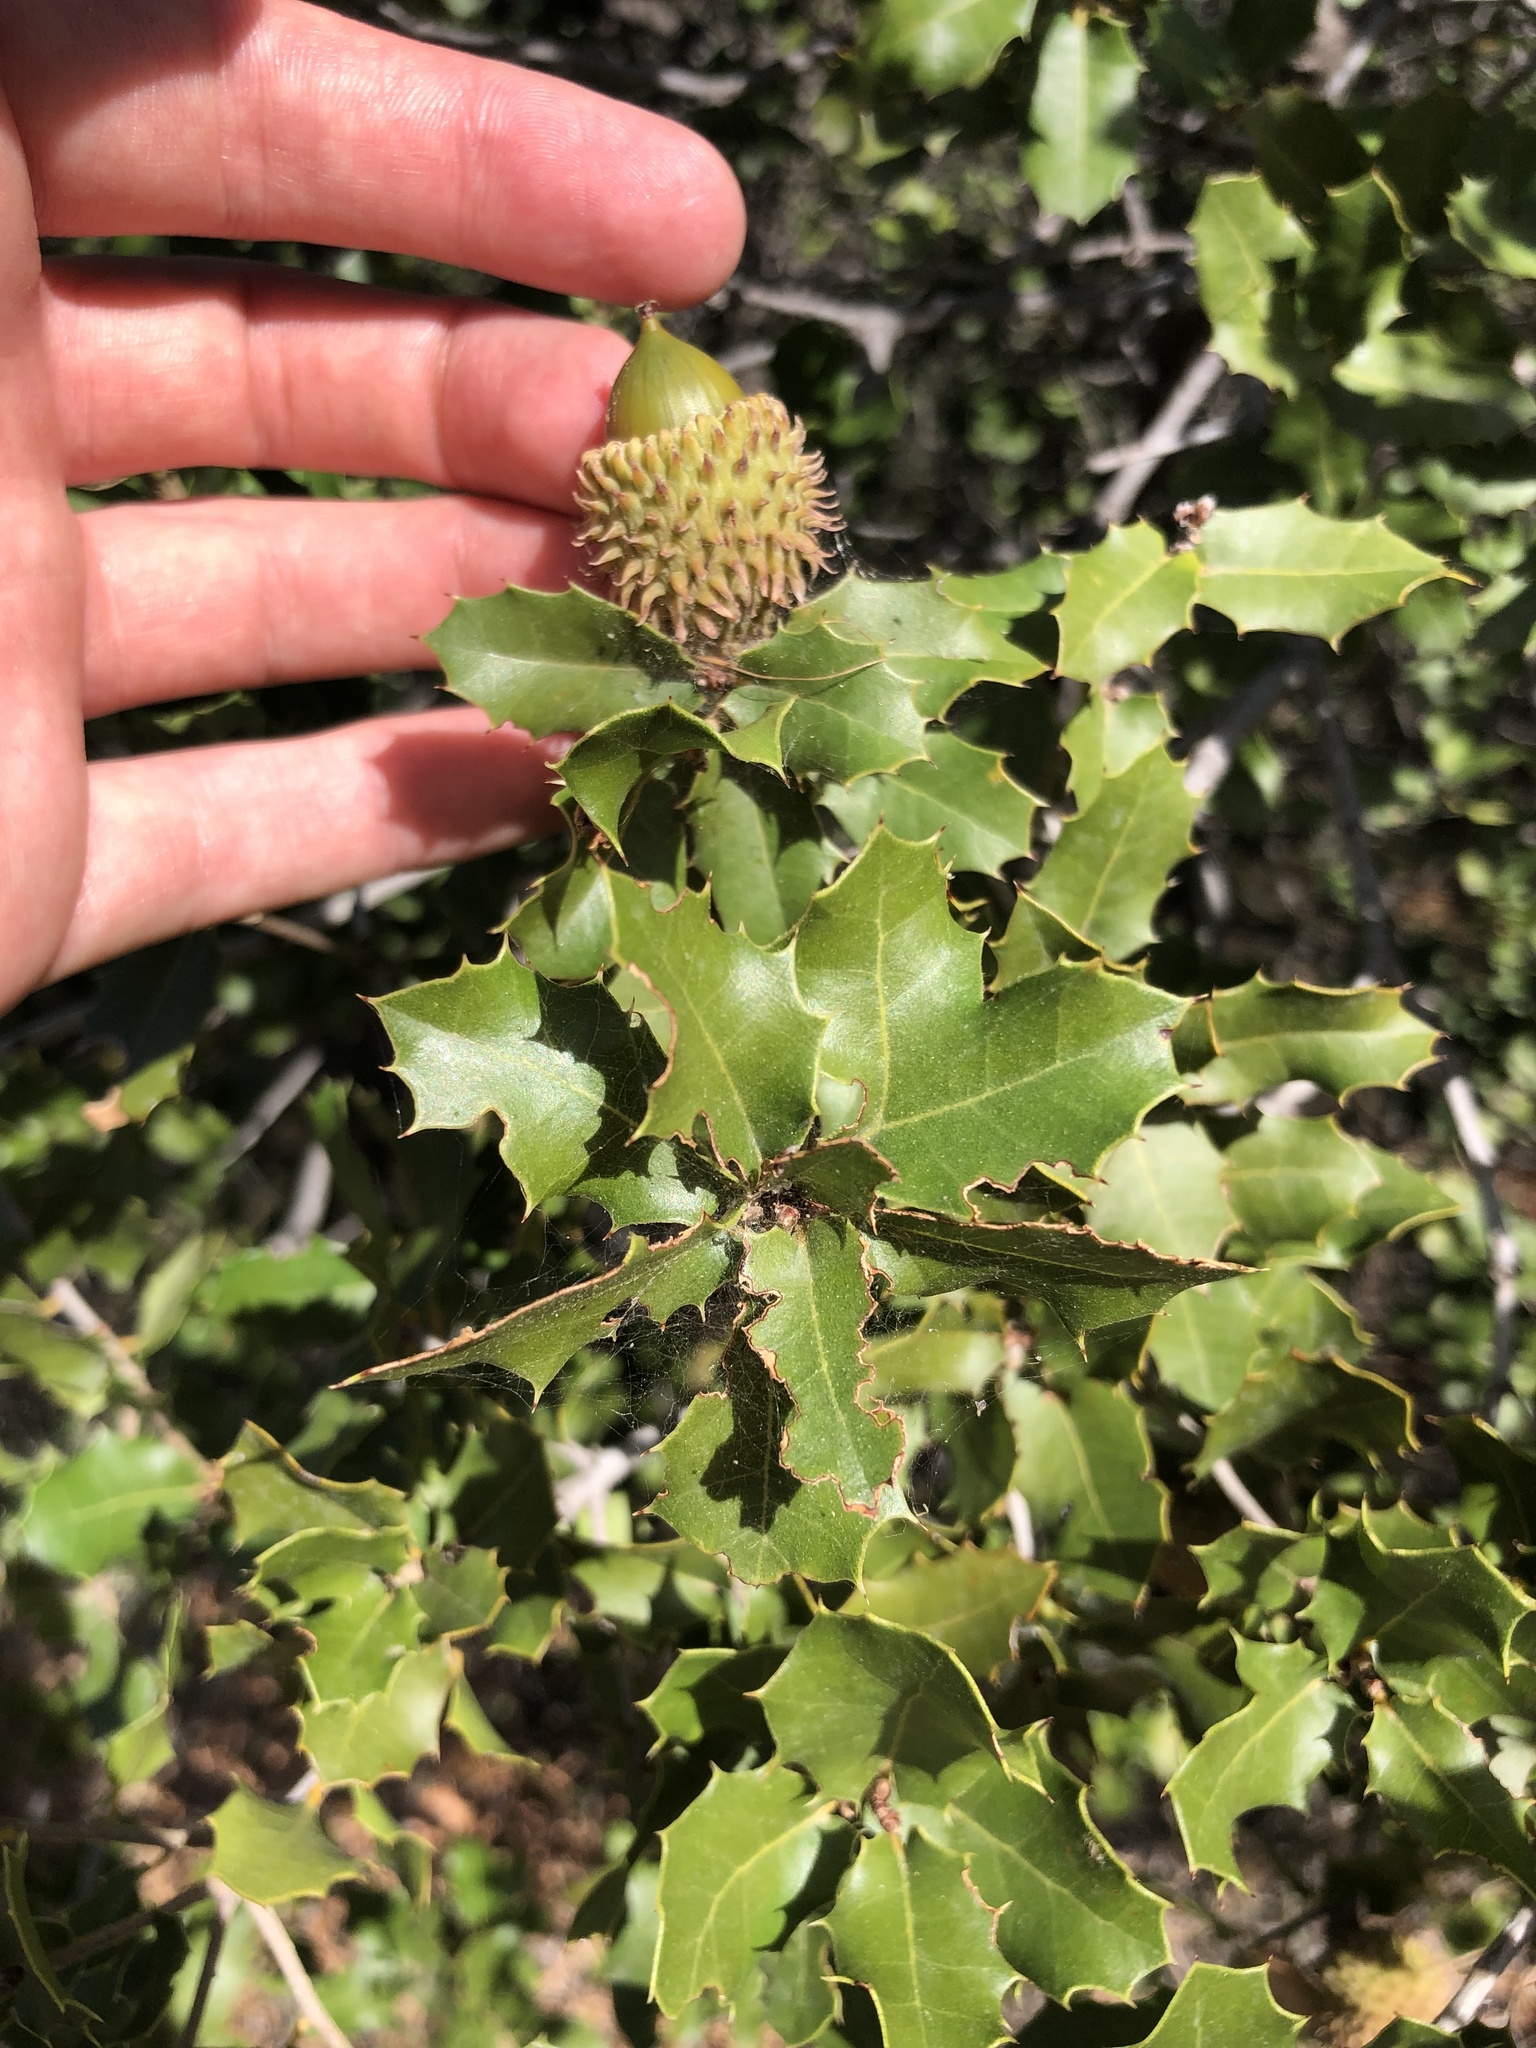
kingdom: Plantae
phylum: Tracheophyta
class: Magnoliopsida
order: Fagales
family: Fagaceae
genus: Quercus
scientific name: Quercus coccifera
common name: Kermes oak
